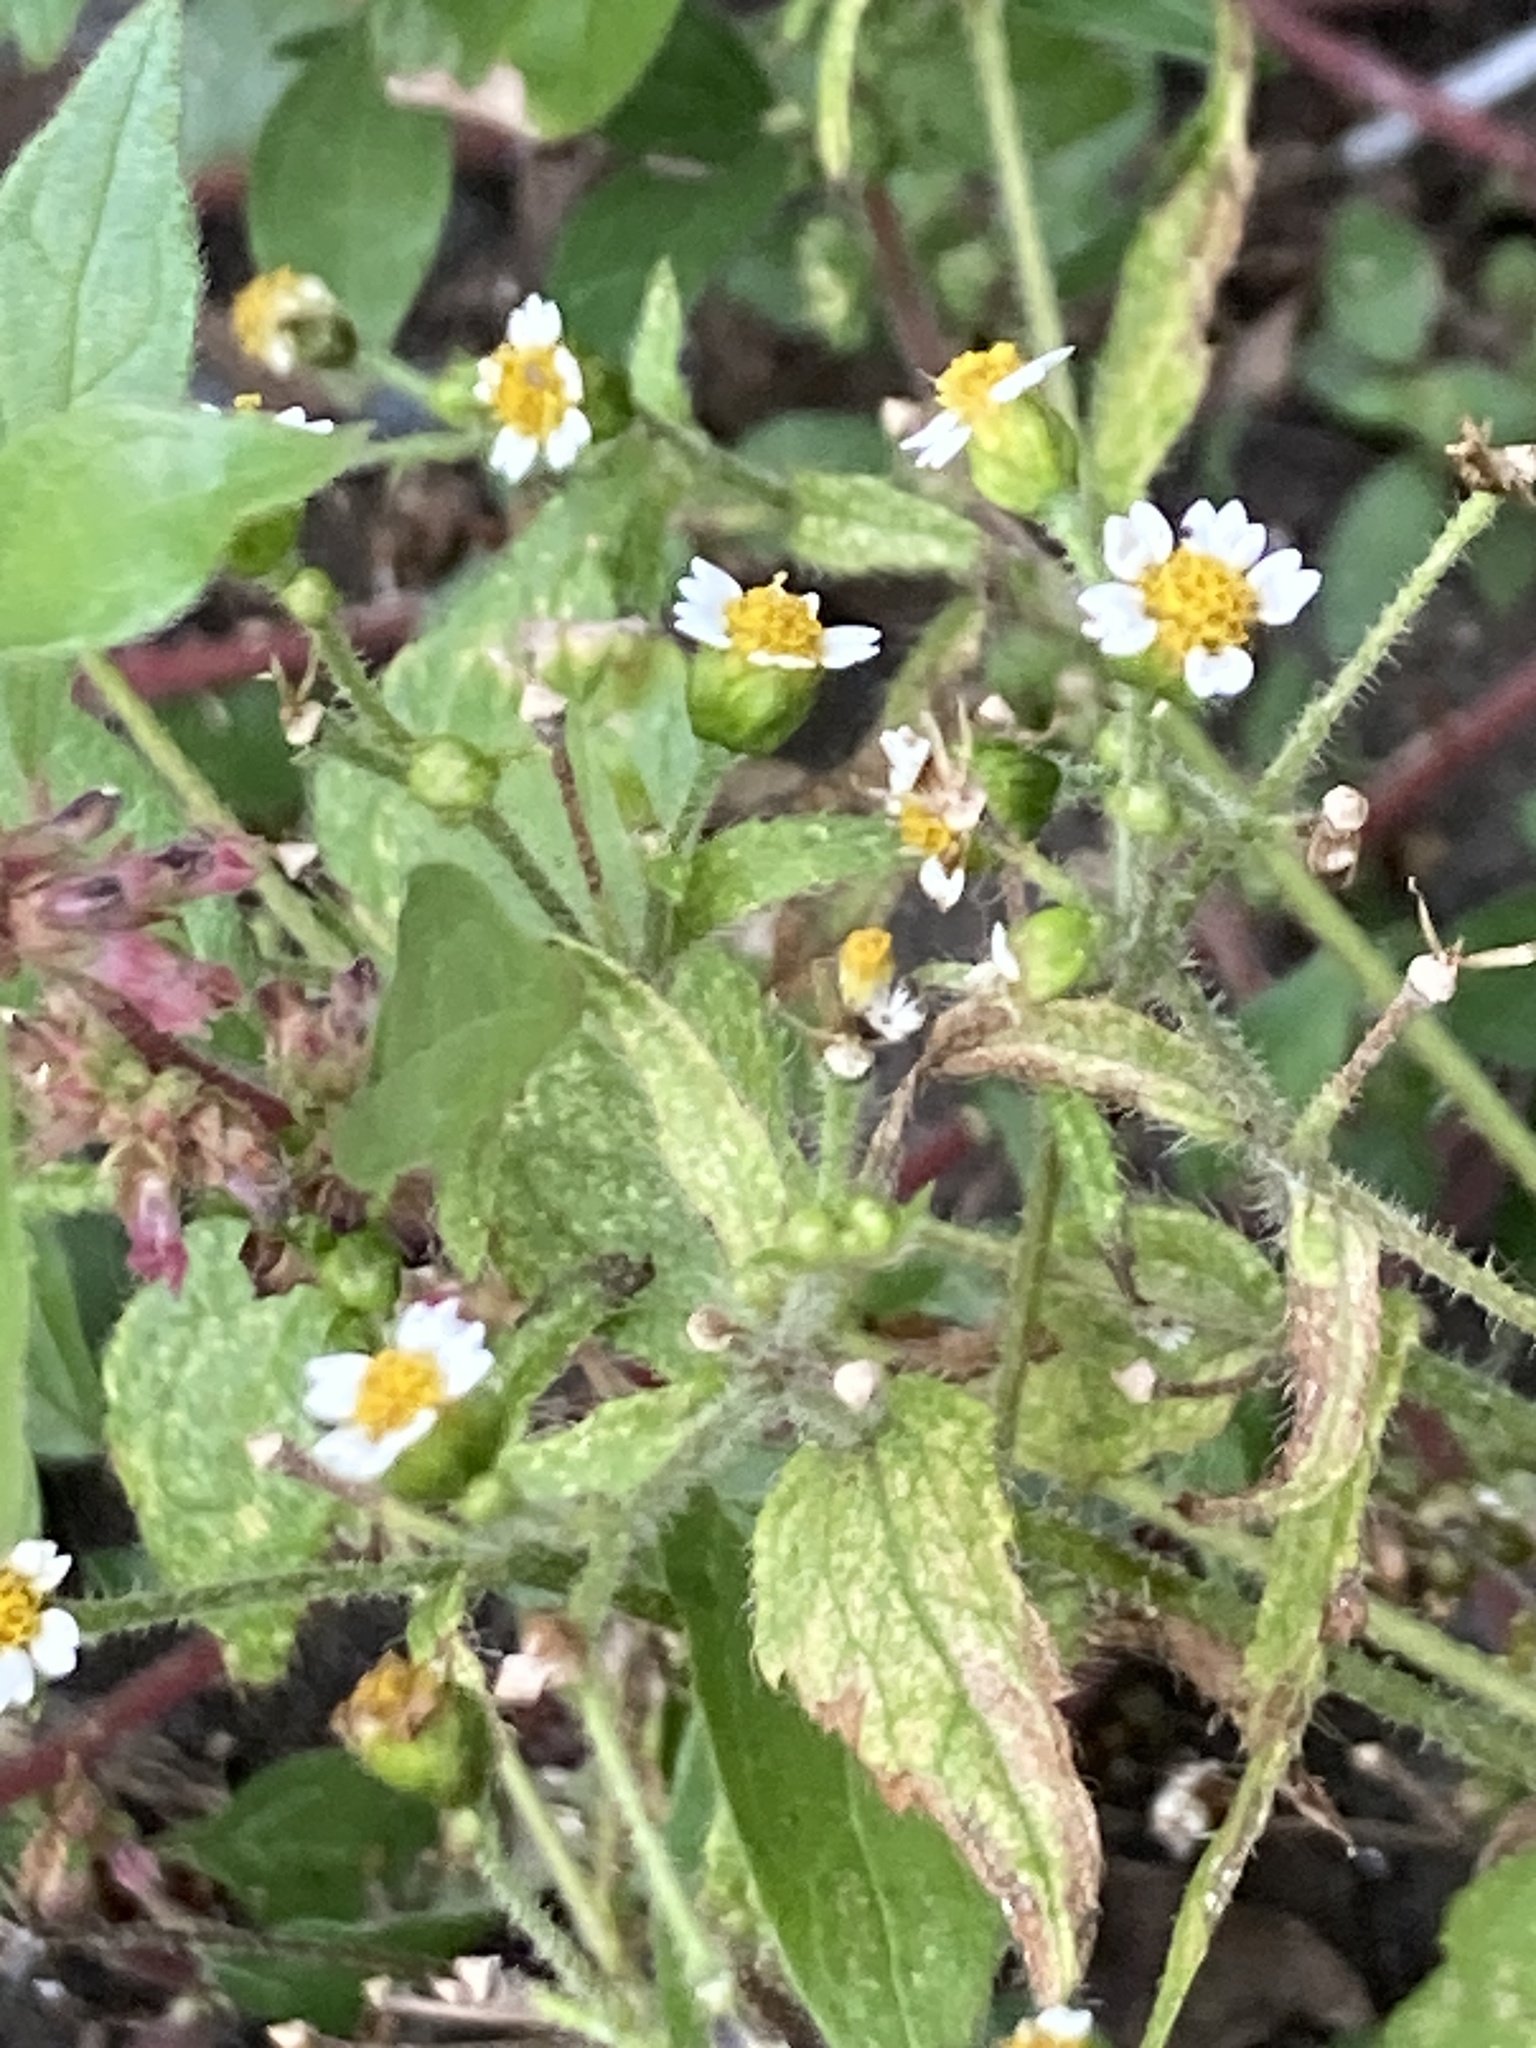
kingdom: Plantae
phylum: Tracheophyta
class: Magnoliopsida
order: Asterales
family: Asteraceae
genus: Galinsoga
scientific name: Galinsoga quadriradiata
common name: Shaggy soldier
